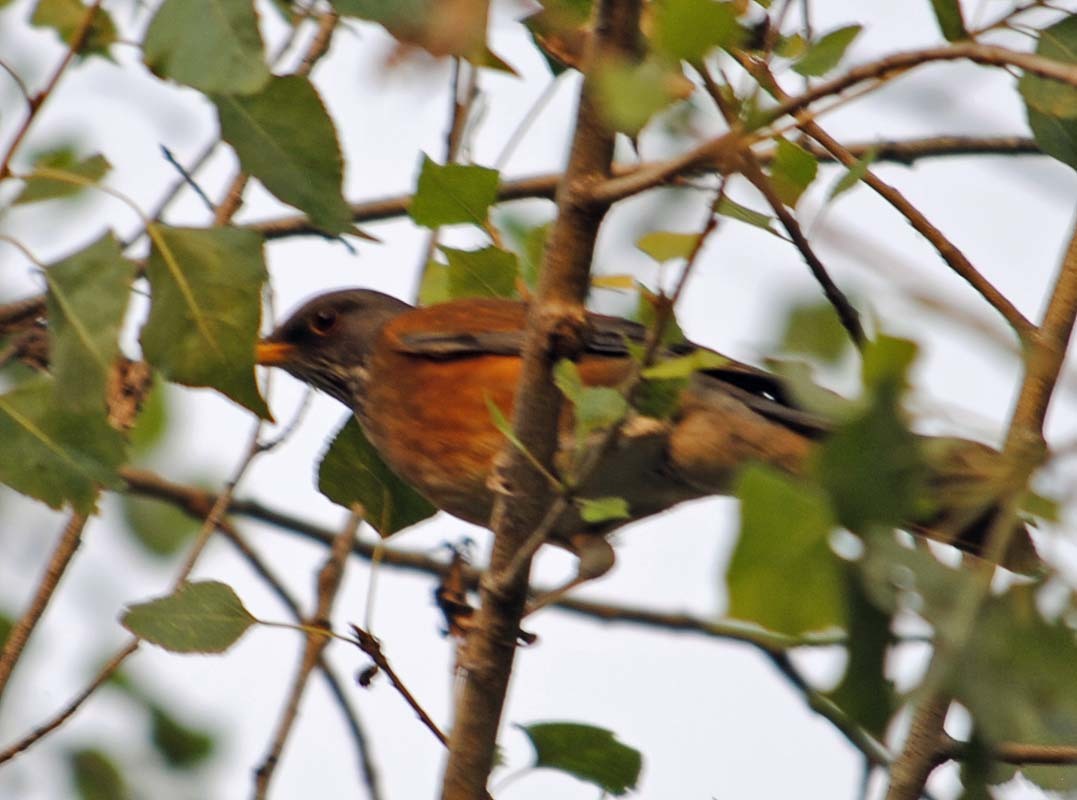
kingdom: Animalia
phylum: Chordata
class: Aves
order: Passeriformes
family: Turdidae
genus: Turdus
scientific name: Turdus rufopalliatus
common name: Rufous-backed robin
